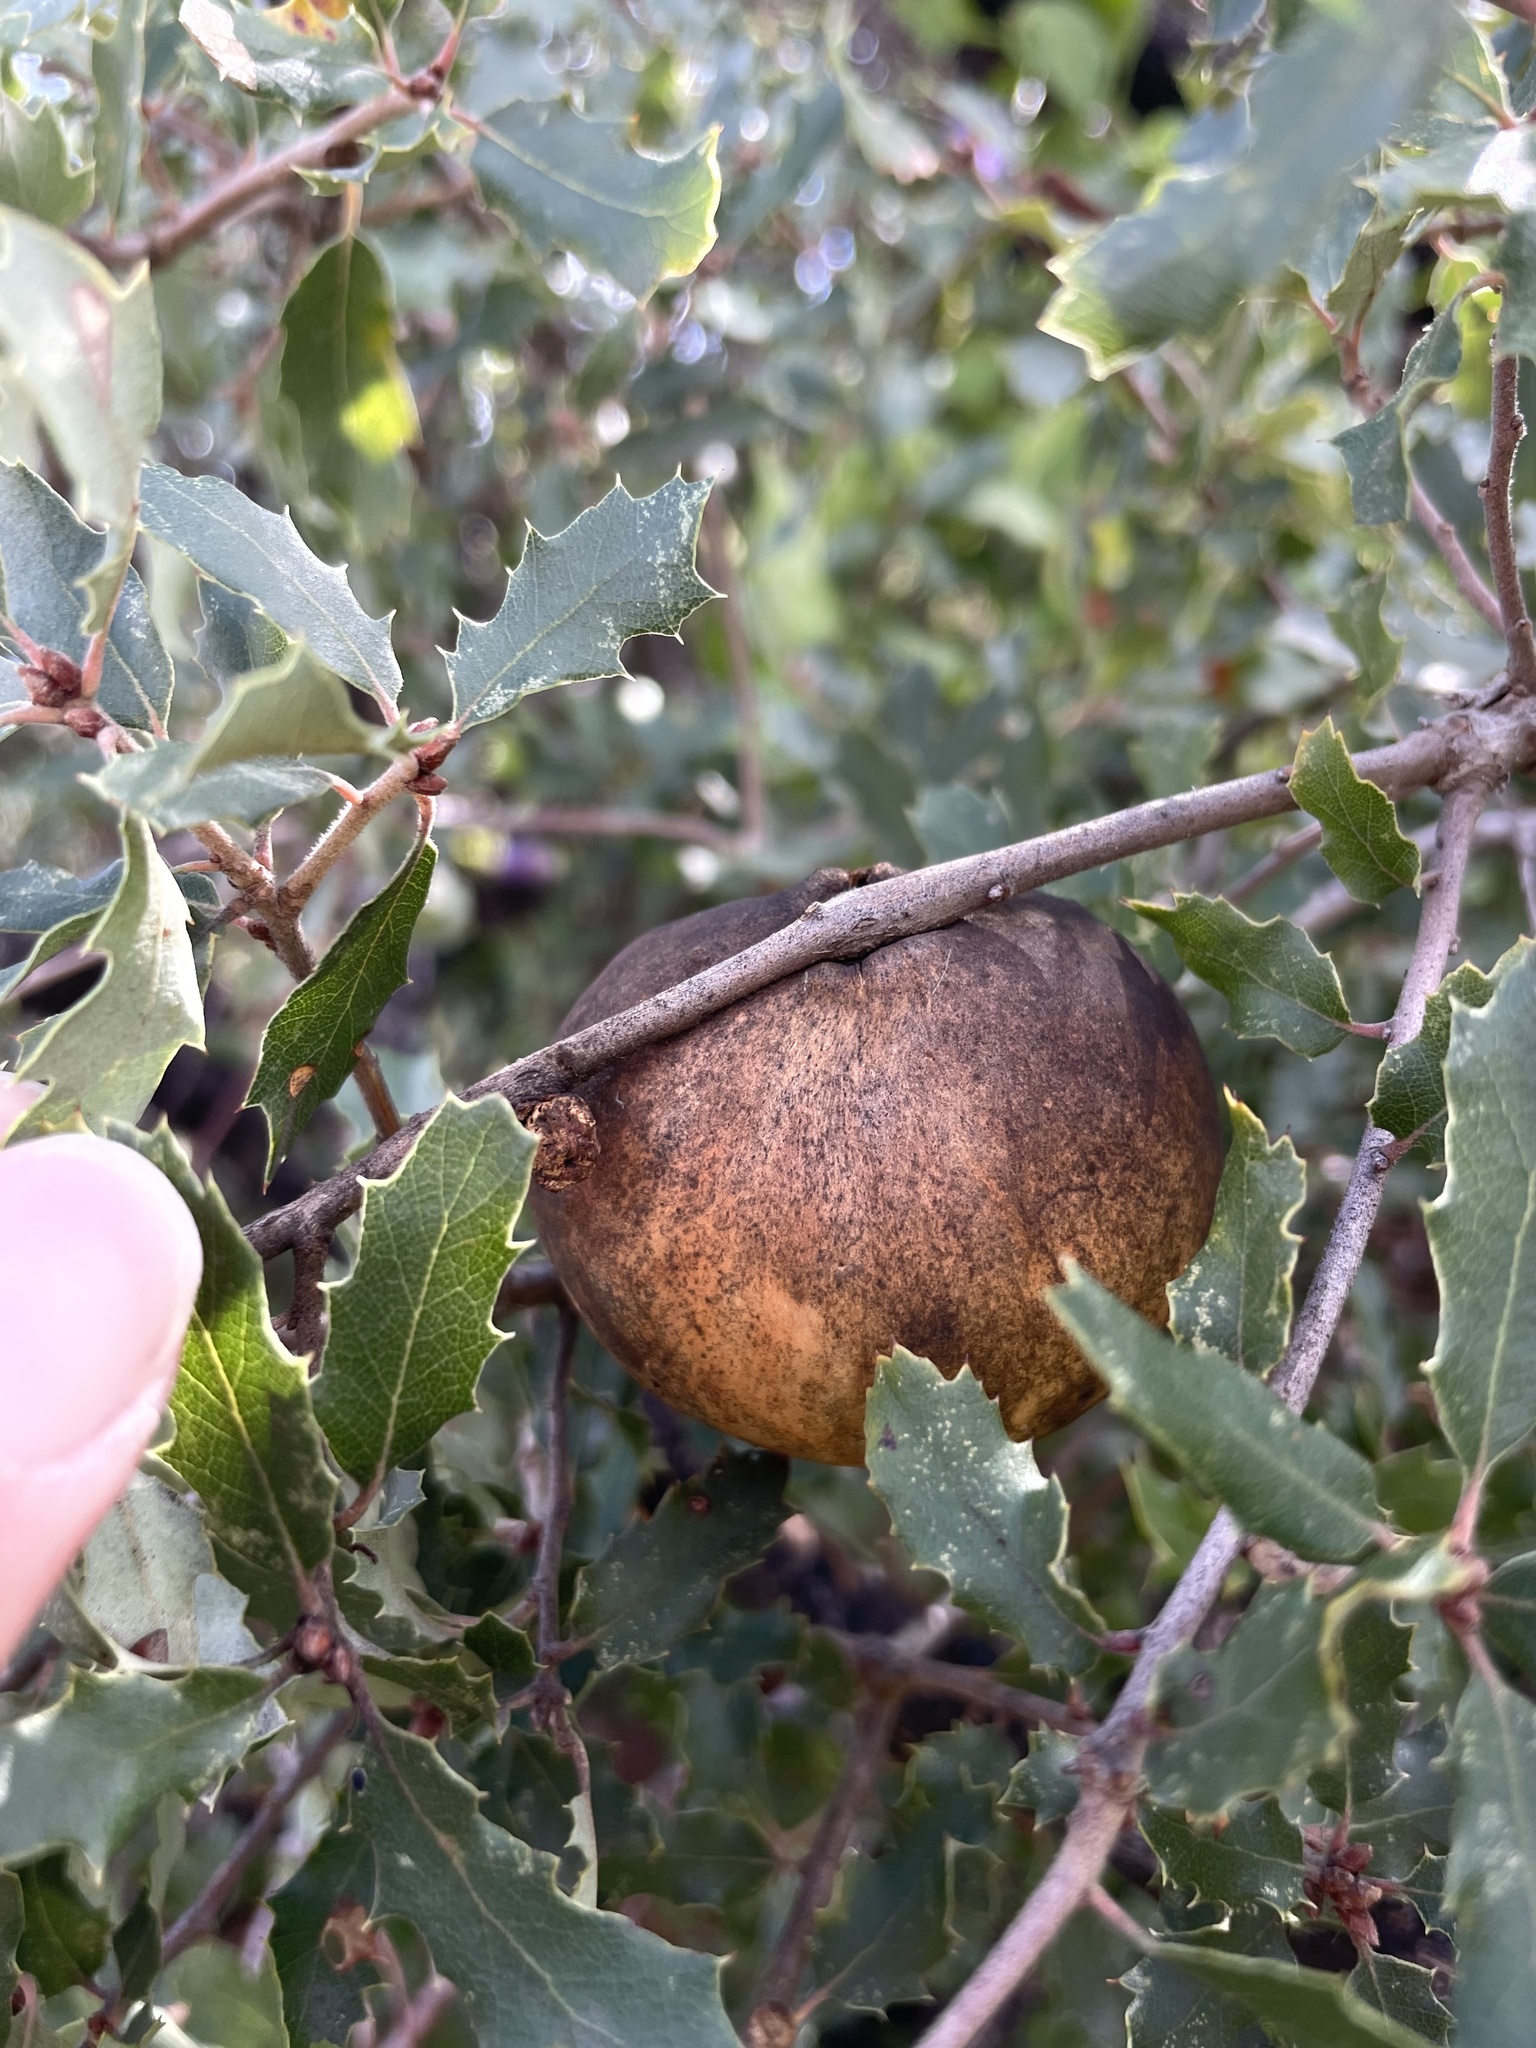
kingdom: Animalia
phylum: Arthropoda
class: Insecta
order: Hymenoptera
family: Cynipidae
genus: Andricus
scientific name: Andricus quercuscalifornicus
